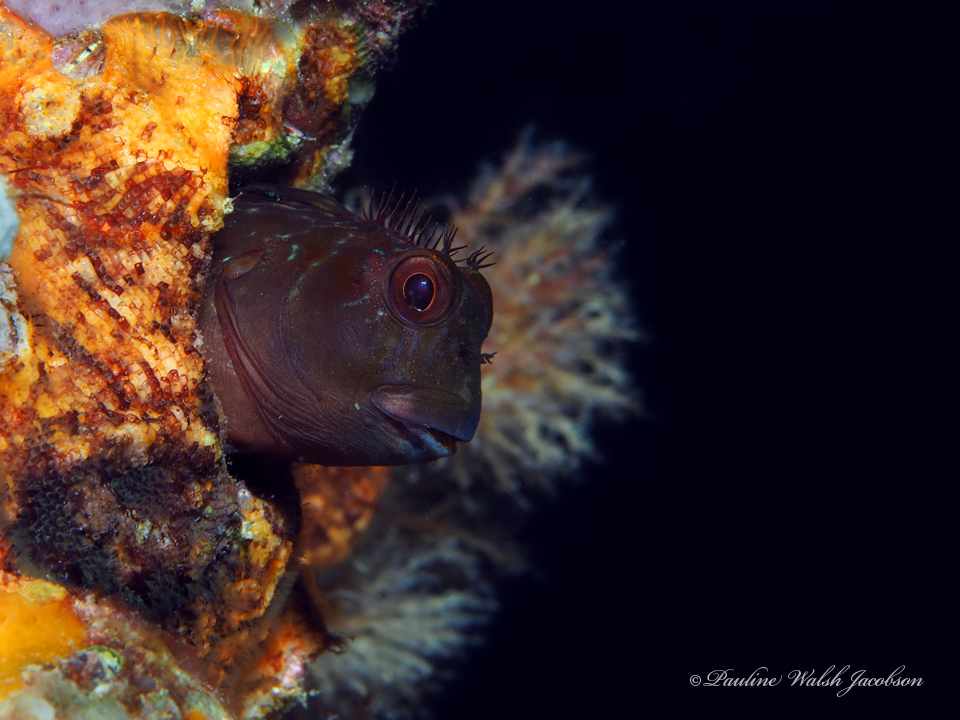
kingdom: Animalia
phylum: Chordata
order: Perciformes
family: Blenniidae
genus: Scartella
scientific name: Scartella cristata
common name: Molly miller
